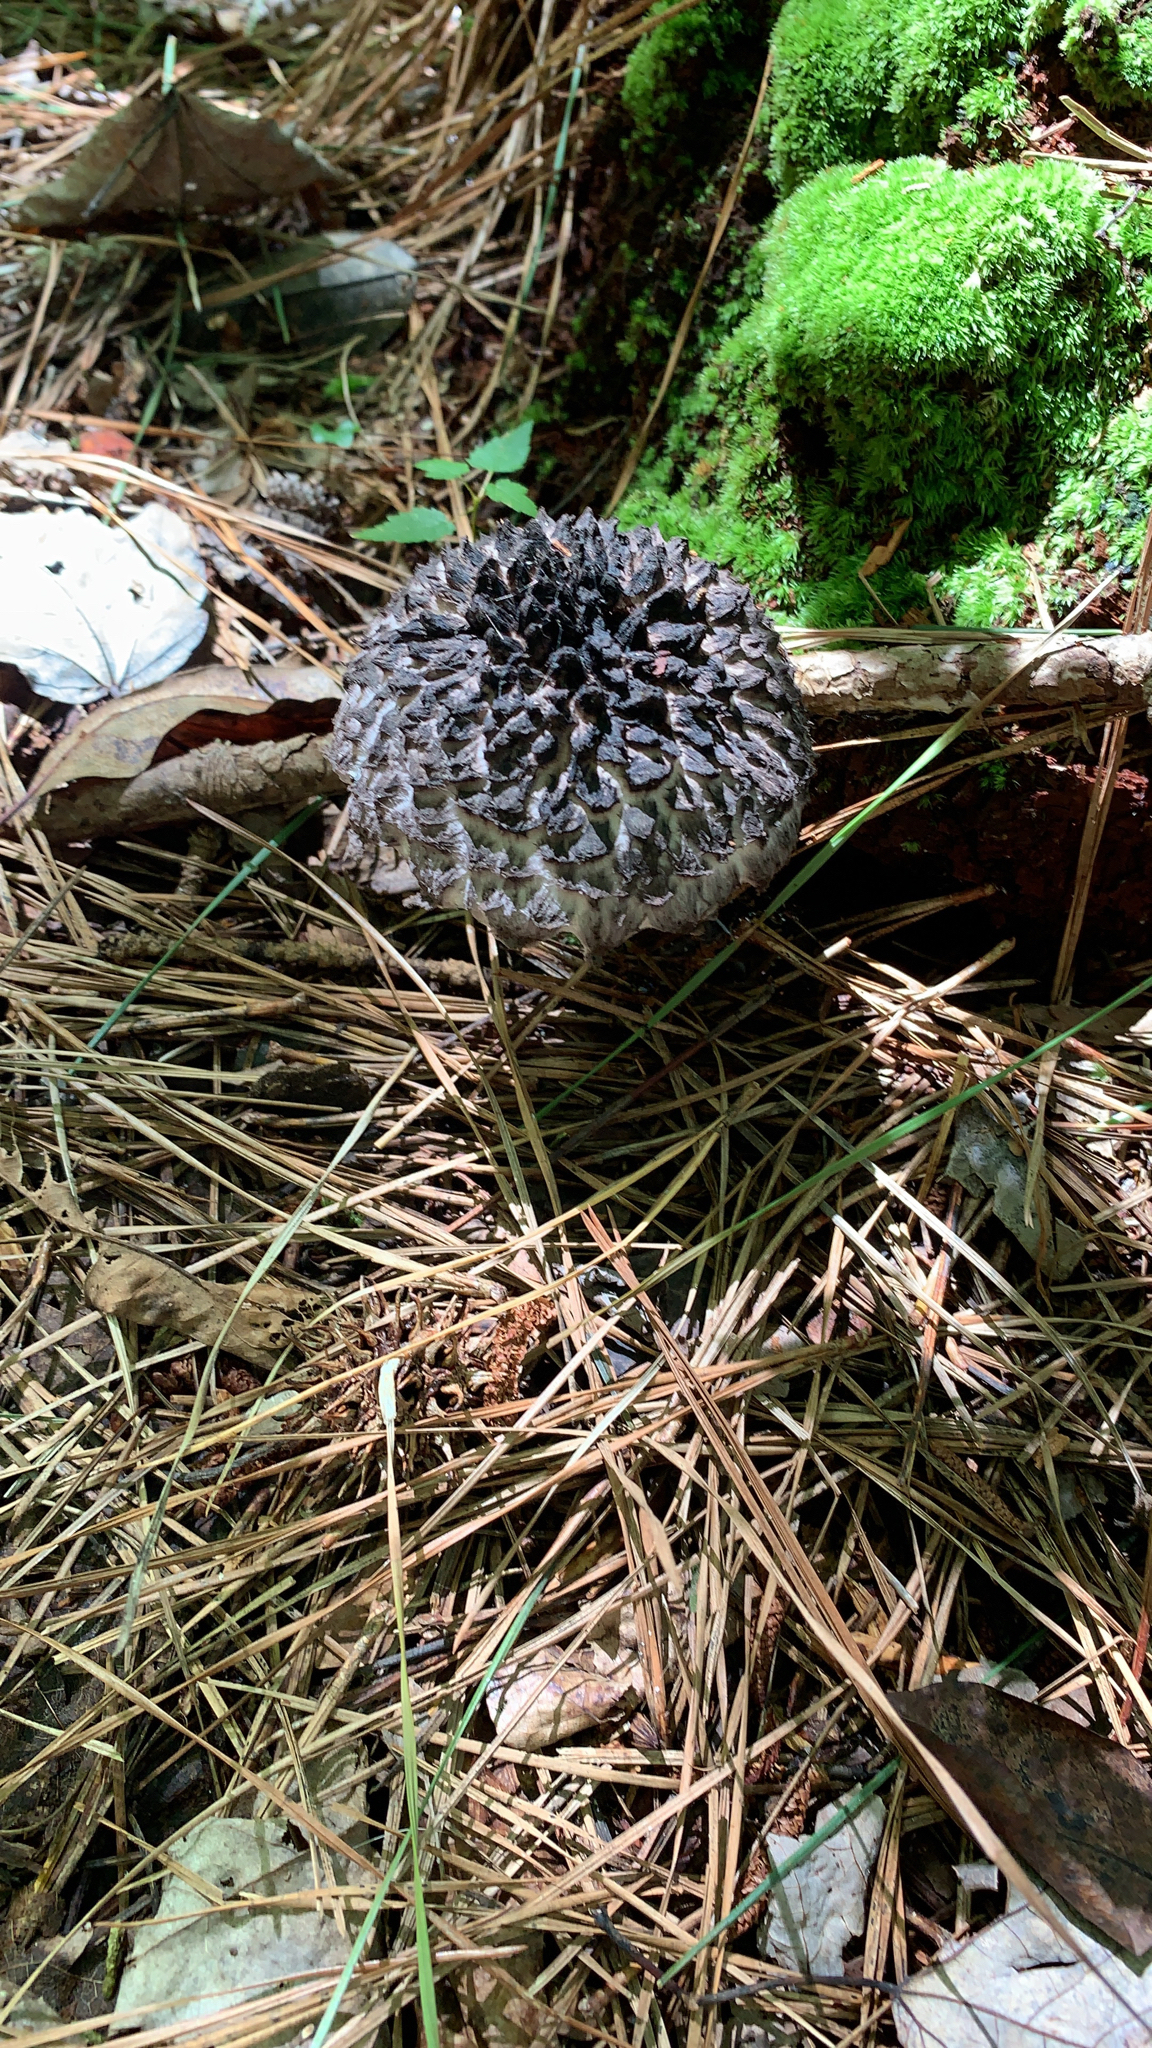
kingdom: Fungi
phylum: Basidiomycota
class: Agaricomycetes
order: Boletales
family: Boletaceae
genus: Strobilomyces
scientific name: Strobilomyces strobilaceus
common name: Old man of the woods
